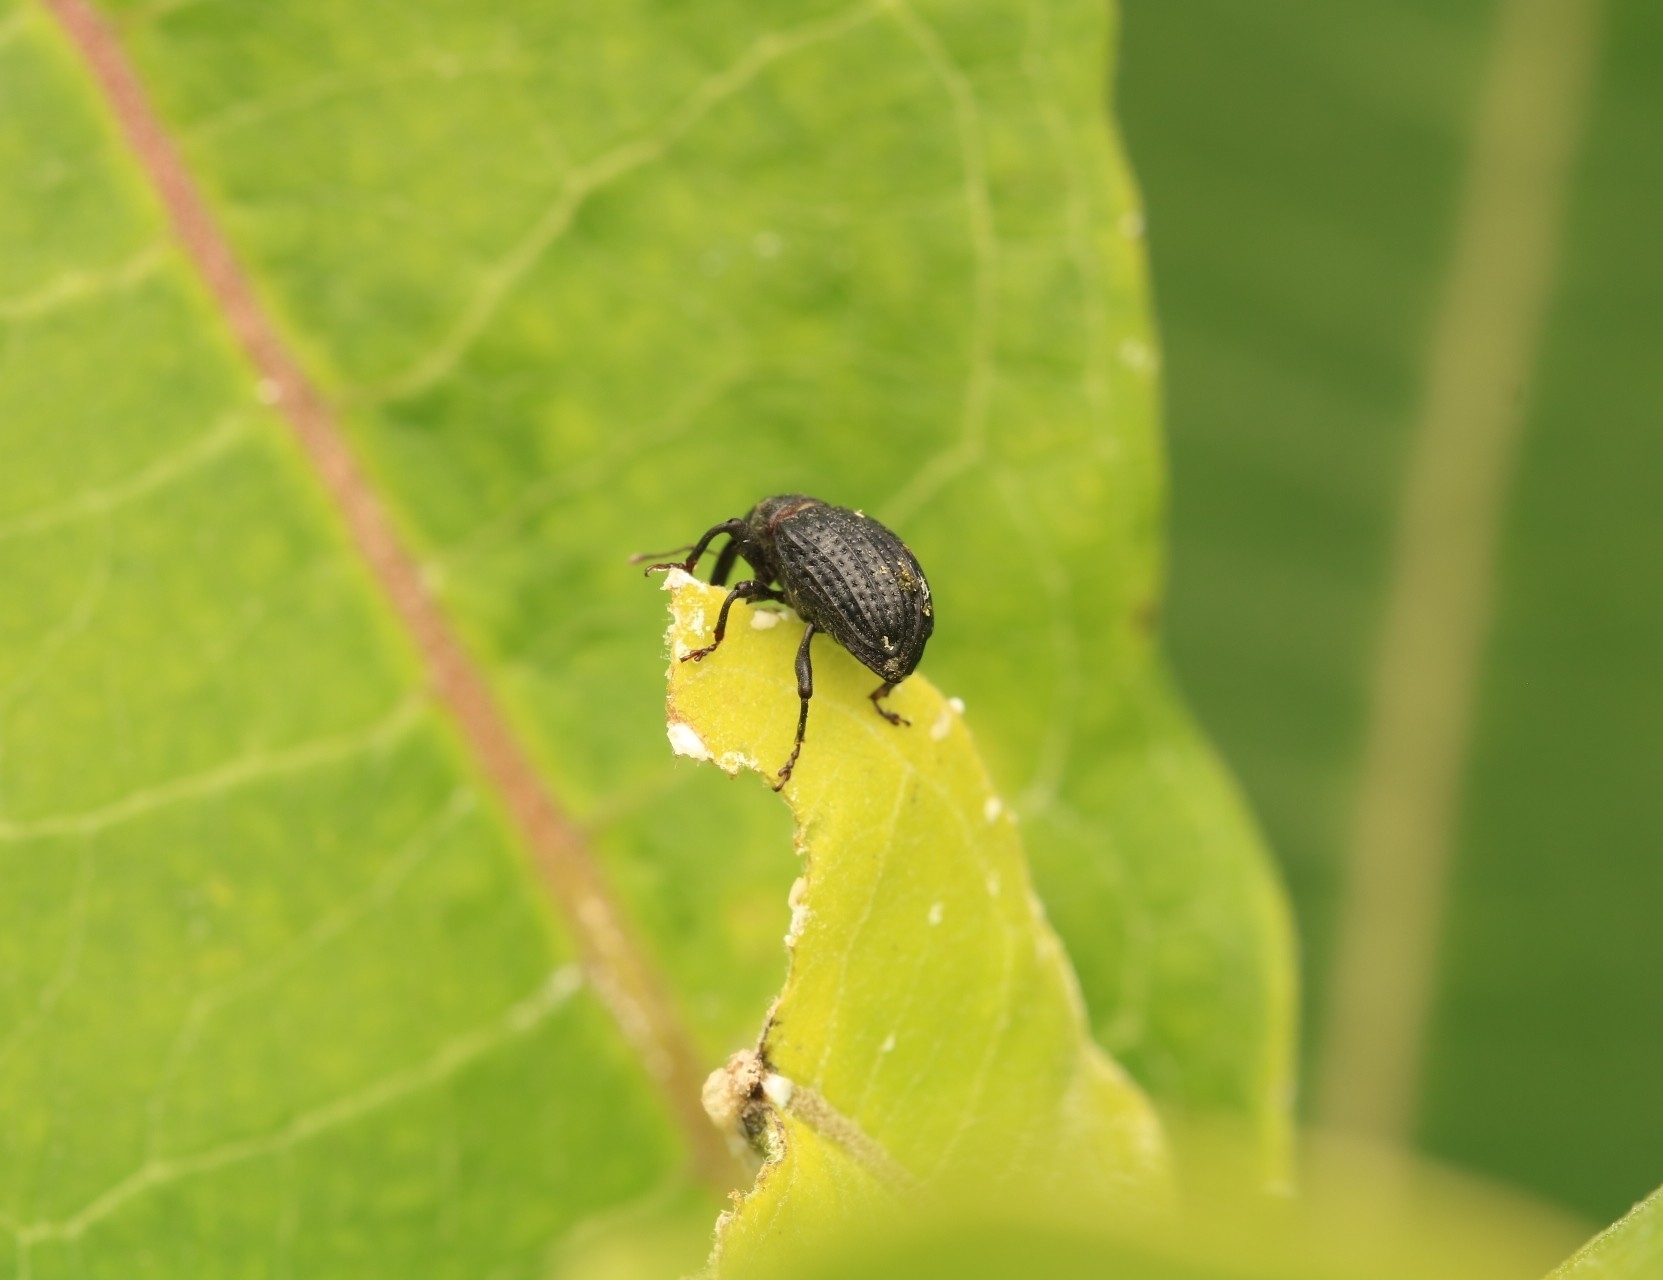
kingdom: Animalia
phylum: Arthropoda
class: Insecta
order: Coleoptera
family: Curculionidae
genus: Rhyssomatus
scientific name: Rhyssomatus lineaticollis
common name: Milkweed stem weevil
